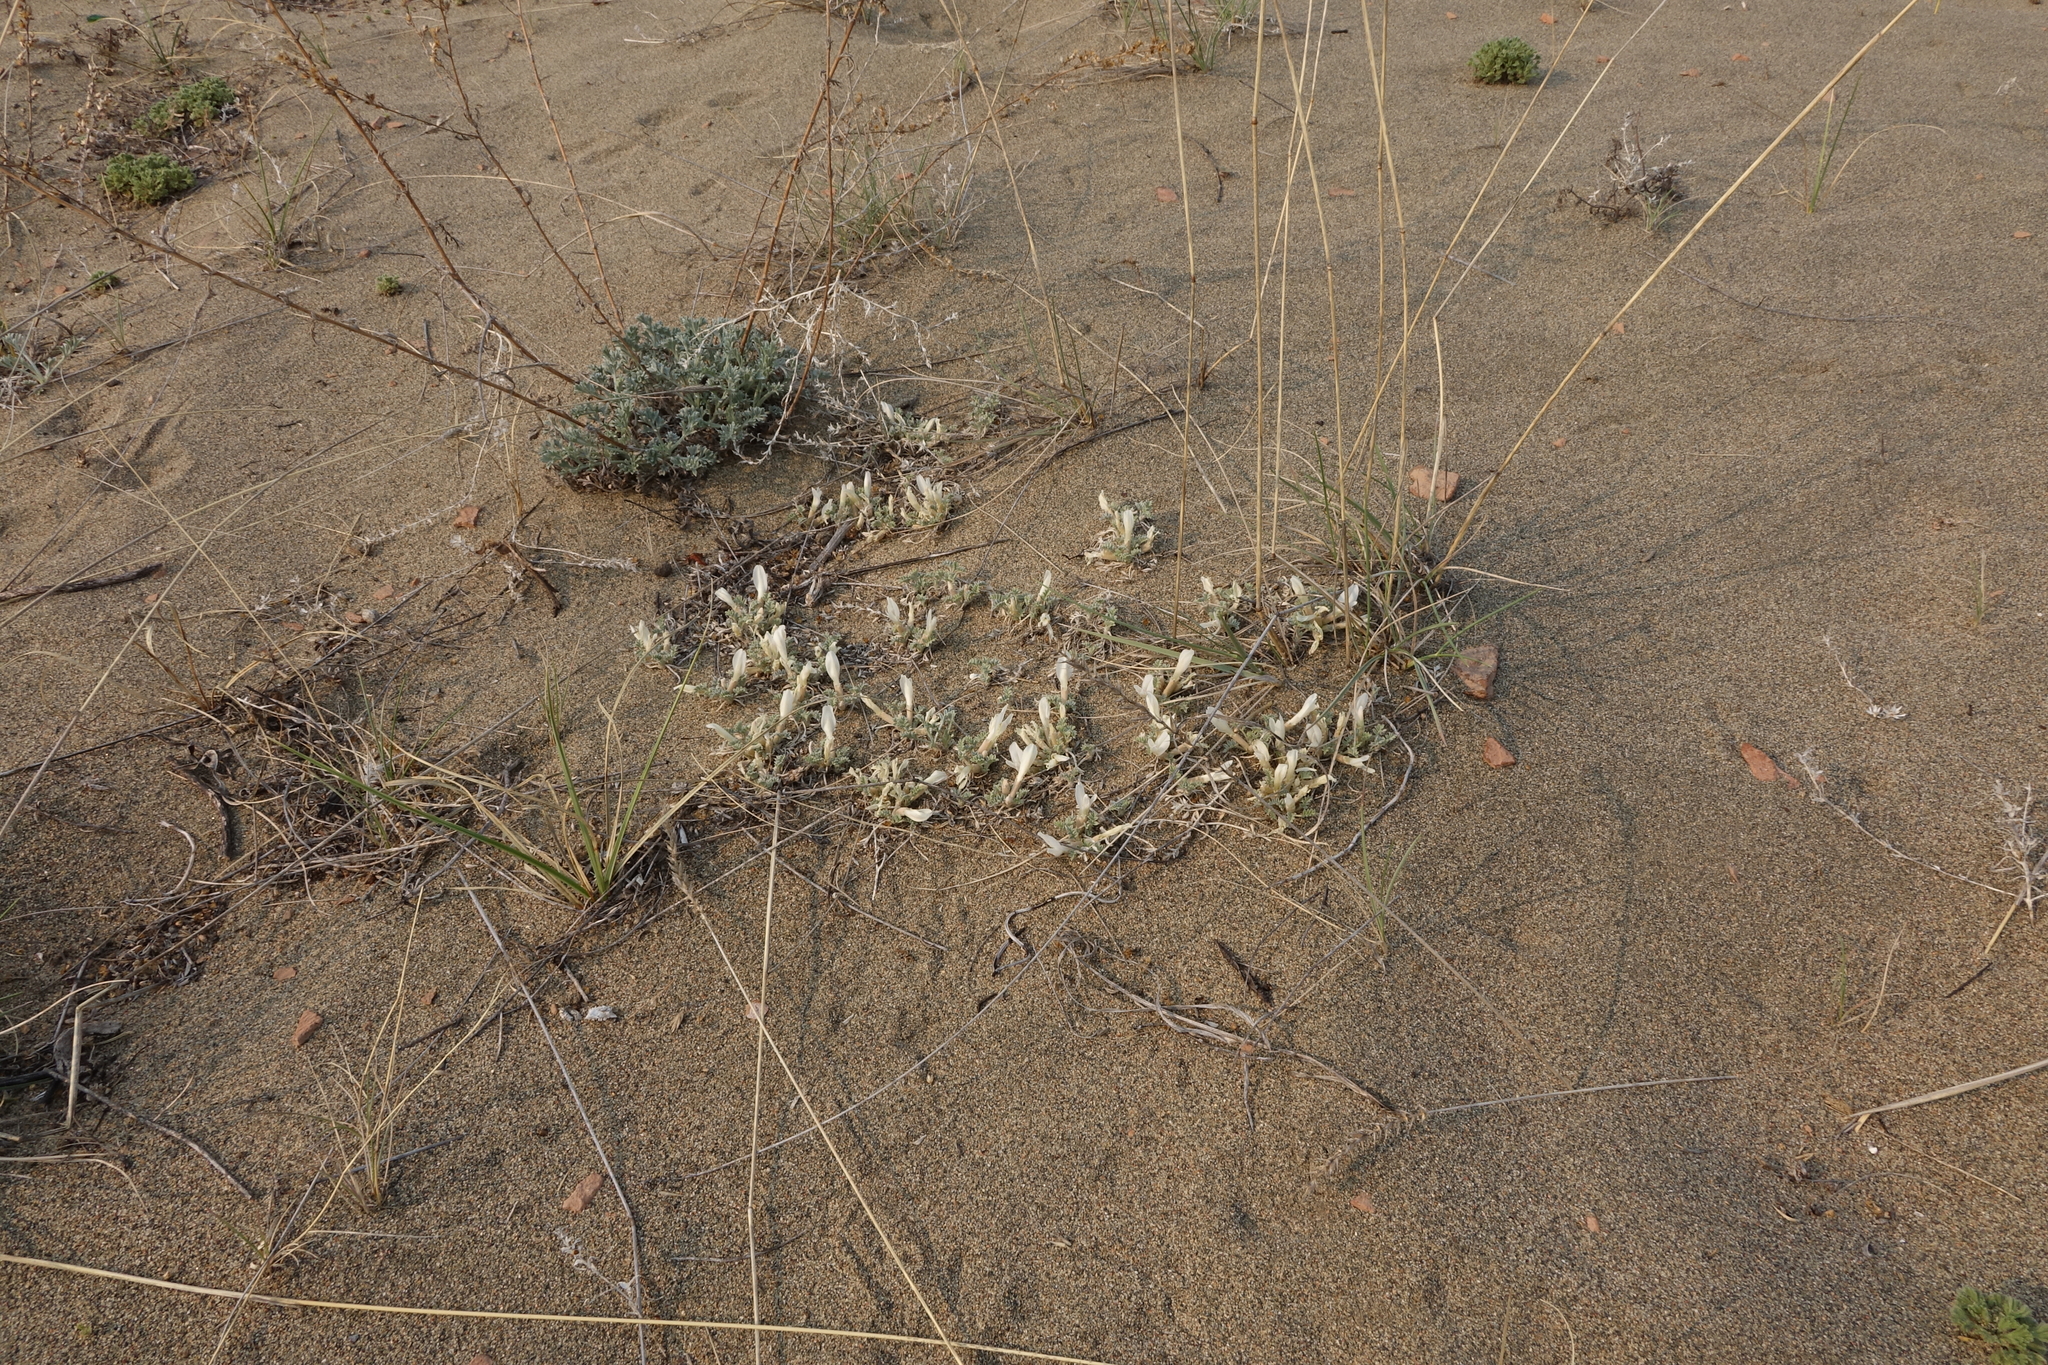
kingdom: Plantae
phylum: Tracheophyta
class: Magnoliopsida
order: Fabales
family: Fabaceae
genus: Astragalus
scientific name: Astragalus teskhemicus
